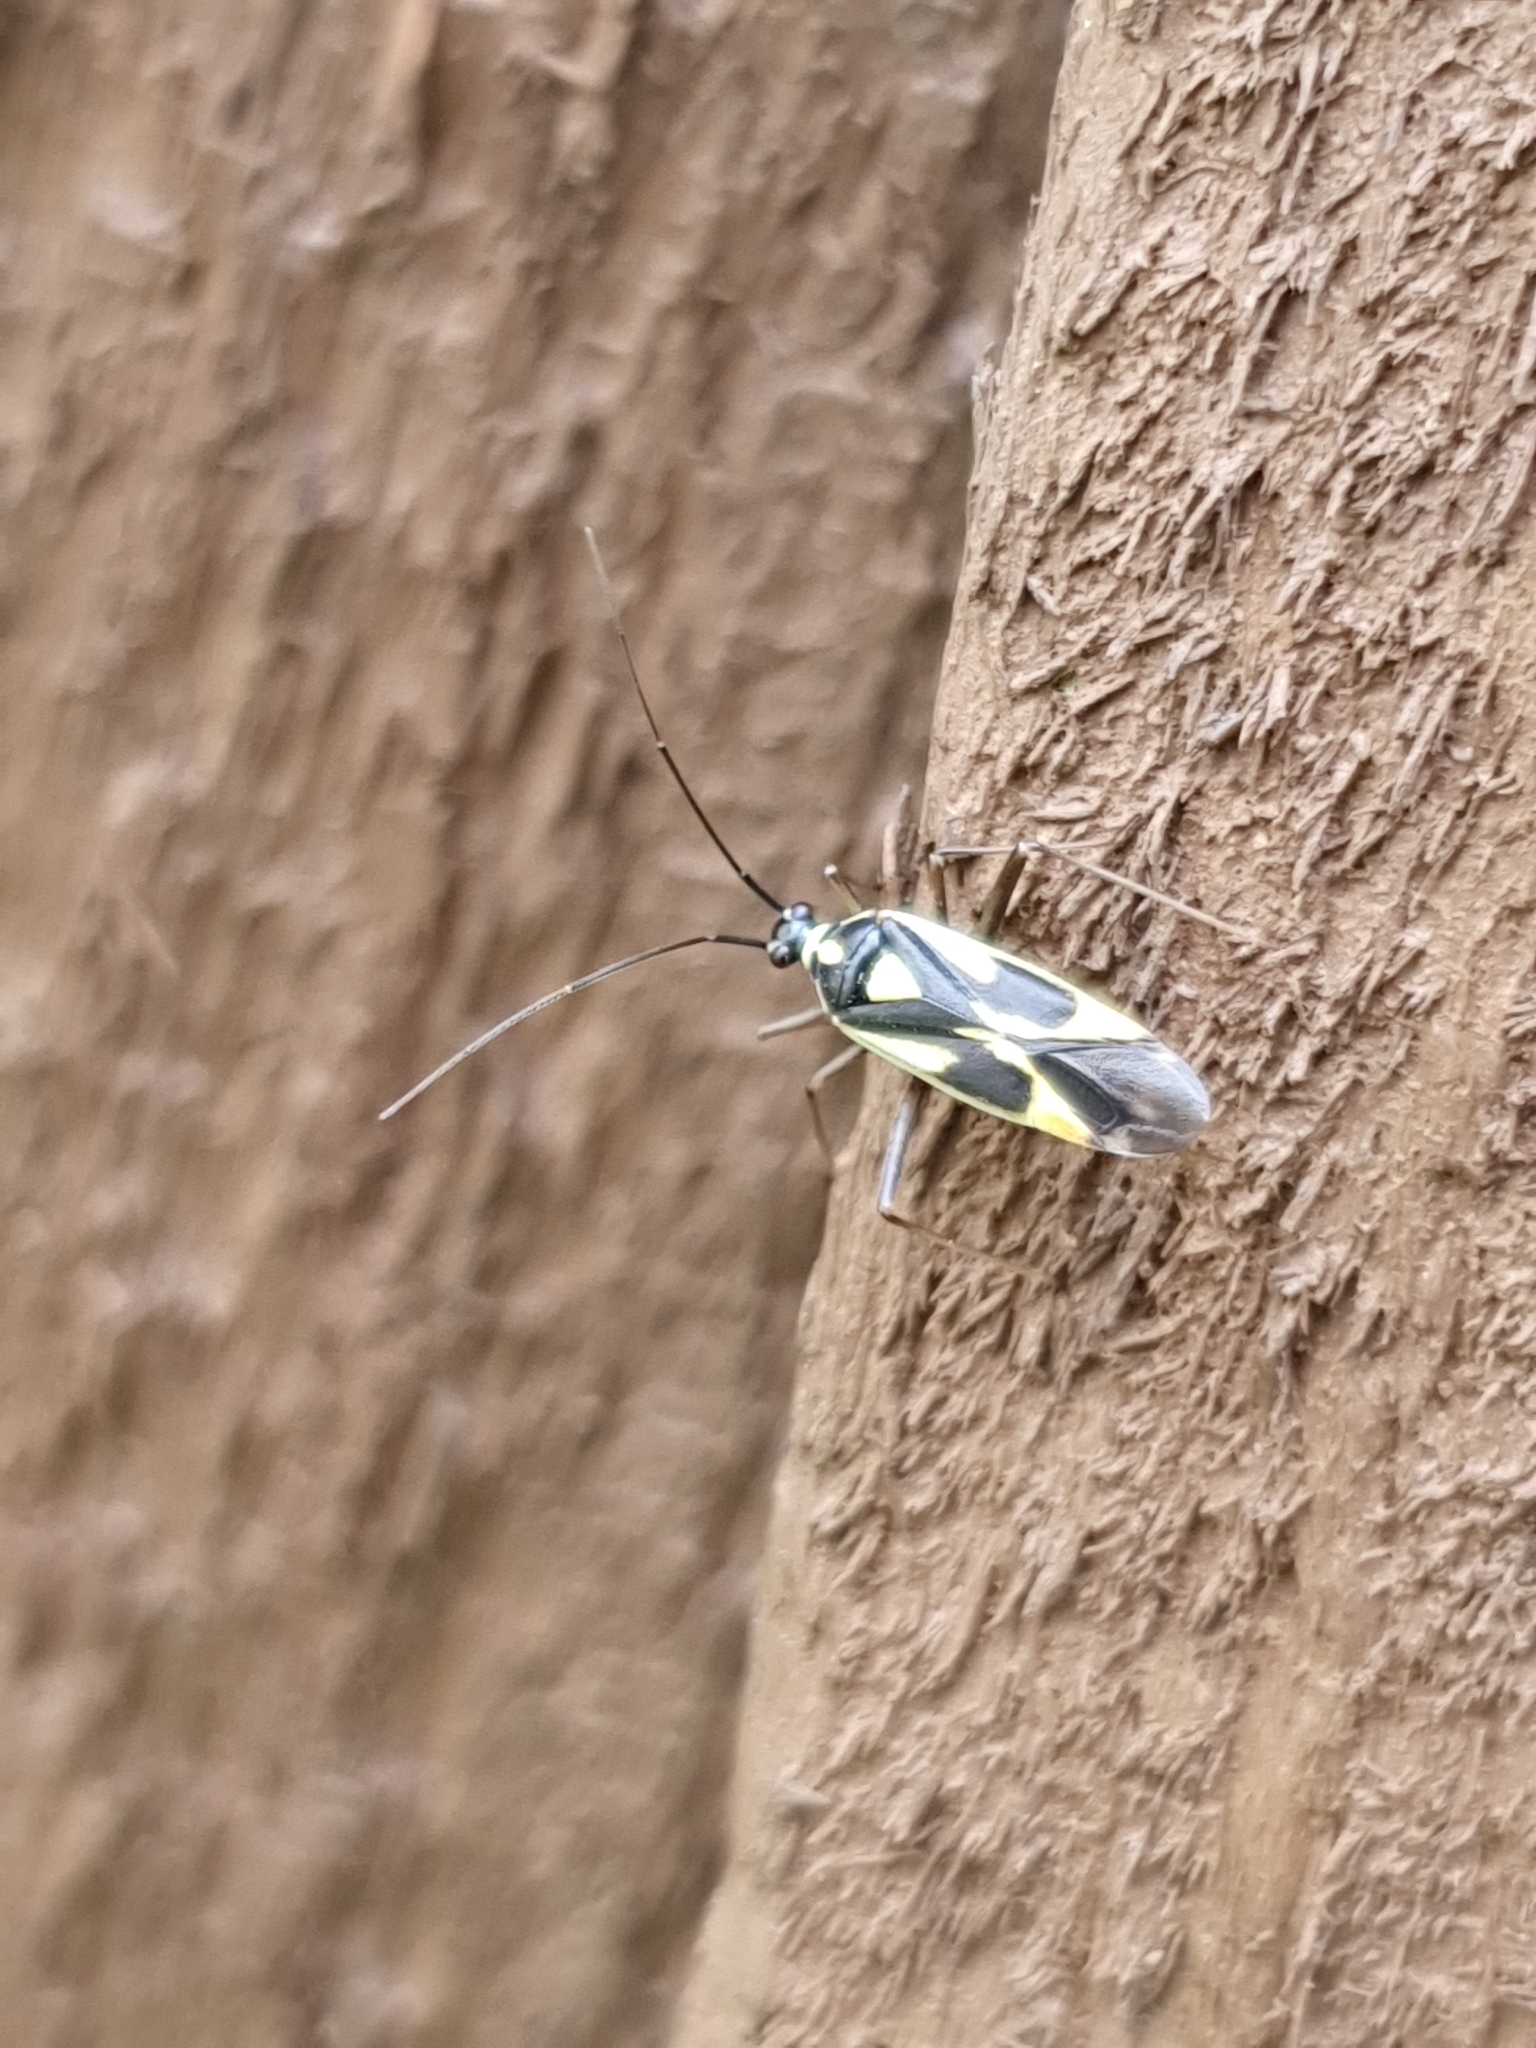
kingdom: Animalia
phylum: Arthropoda
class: Insecta
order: Hemiptera
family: Miridae
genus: Grypocoris
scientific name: Grypocoris stysi
